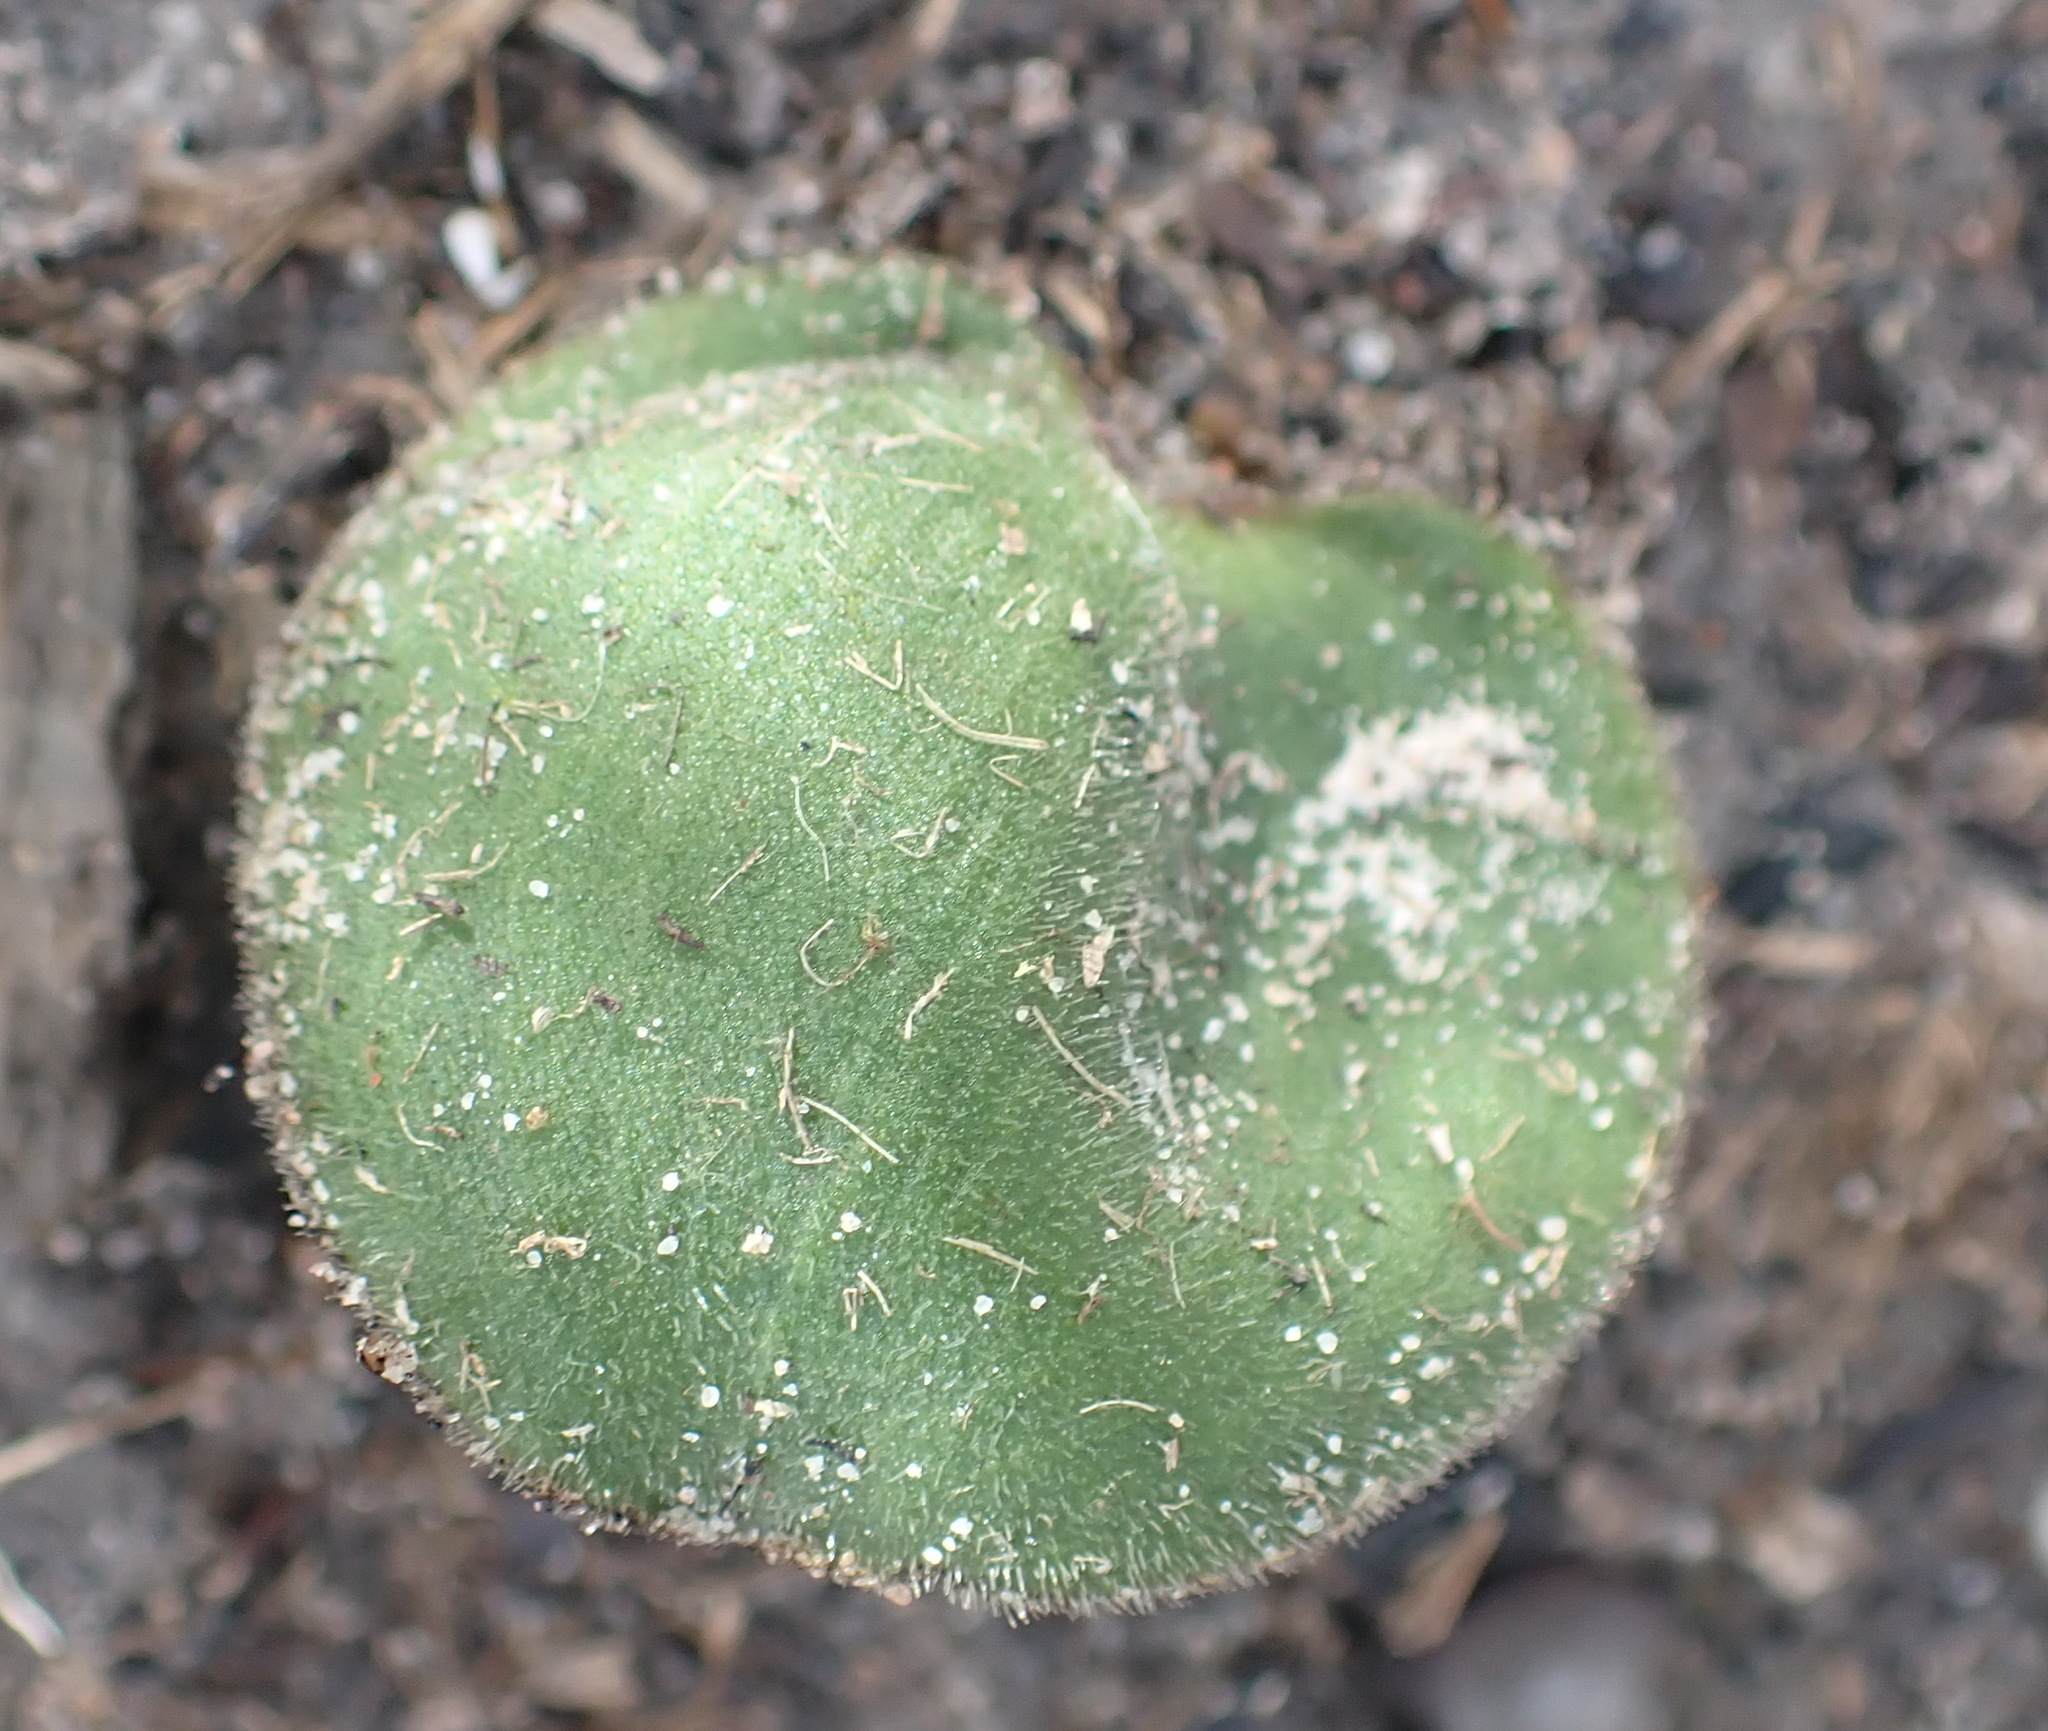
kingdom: Plantae
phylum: Tracheophyta
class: Liliopsida
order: Asparagales
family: Asparagaceae
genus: Eriospermum
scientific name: Eriospermum dielsianum
